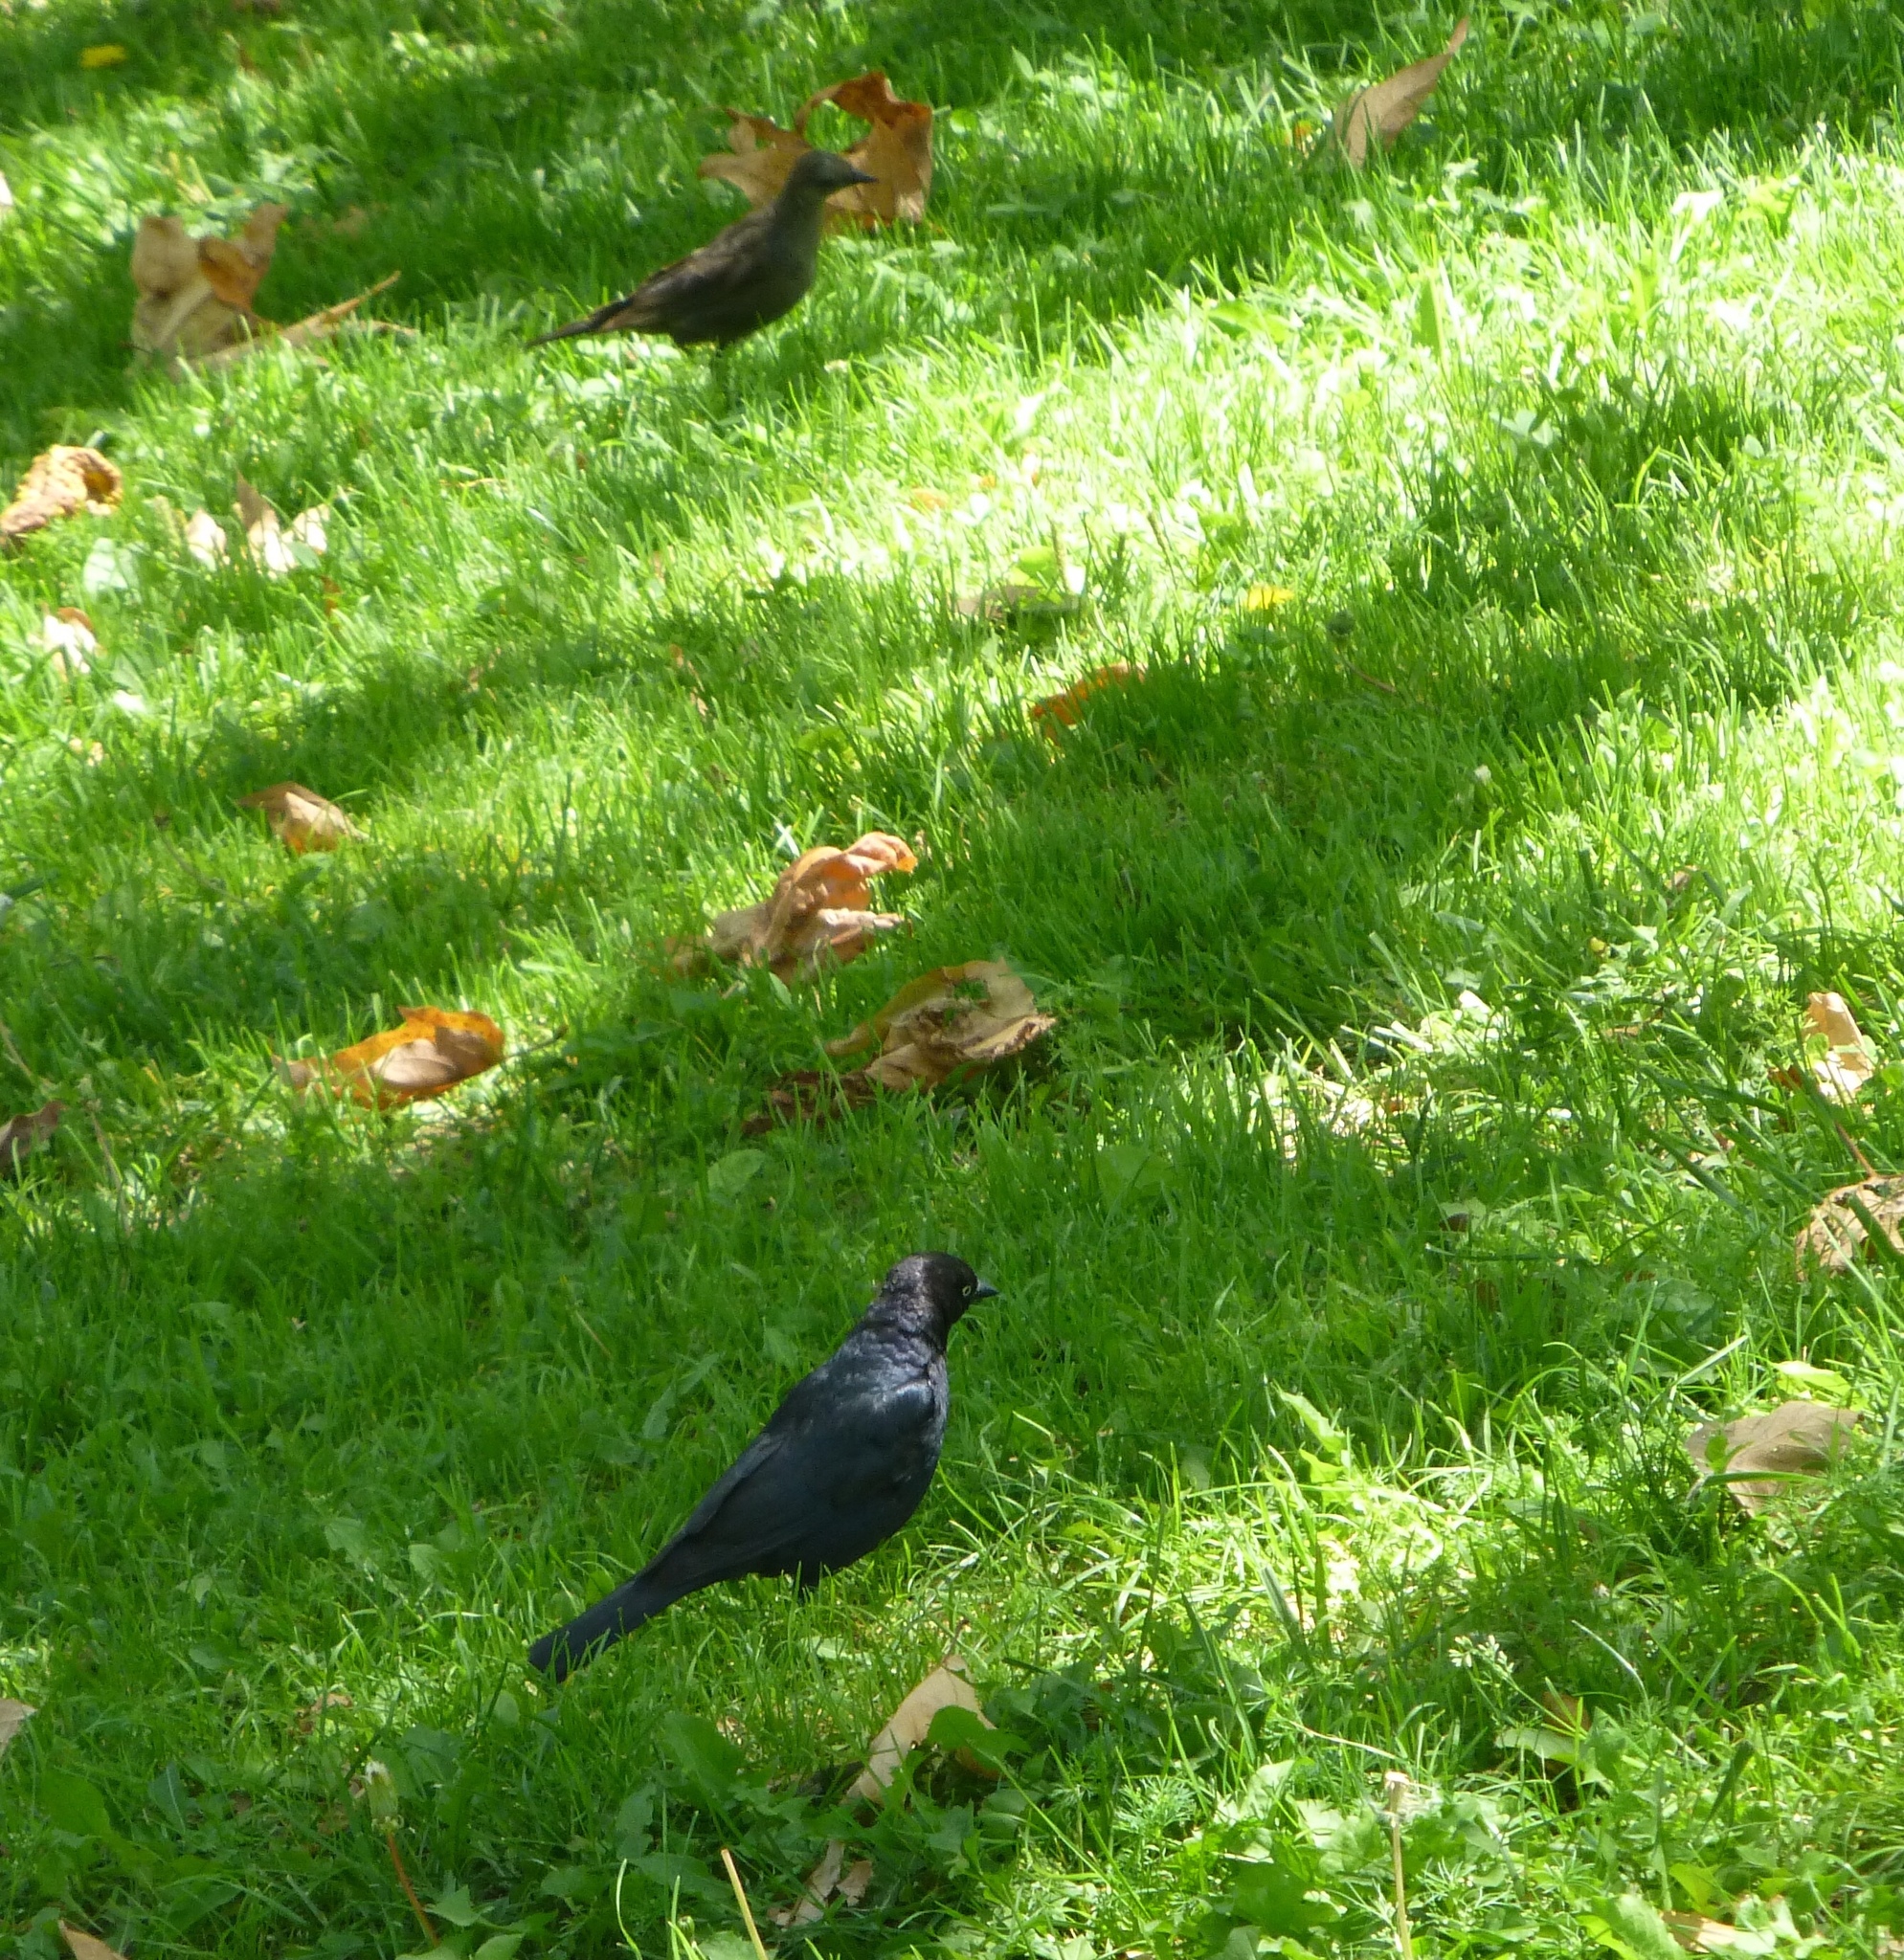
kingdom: Animalia
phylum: Chordata
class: Aves
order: Passeriformes
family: Icteridae
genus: Euphagus
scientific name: Euphagus cyanocephalus
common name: Brewer's blackbird
